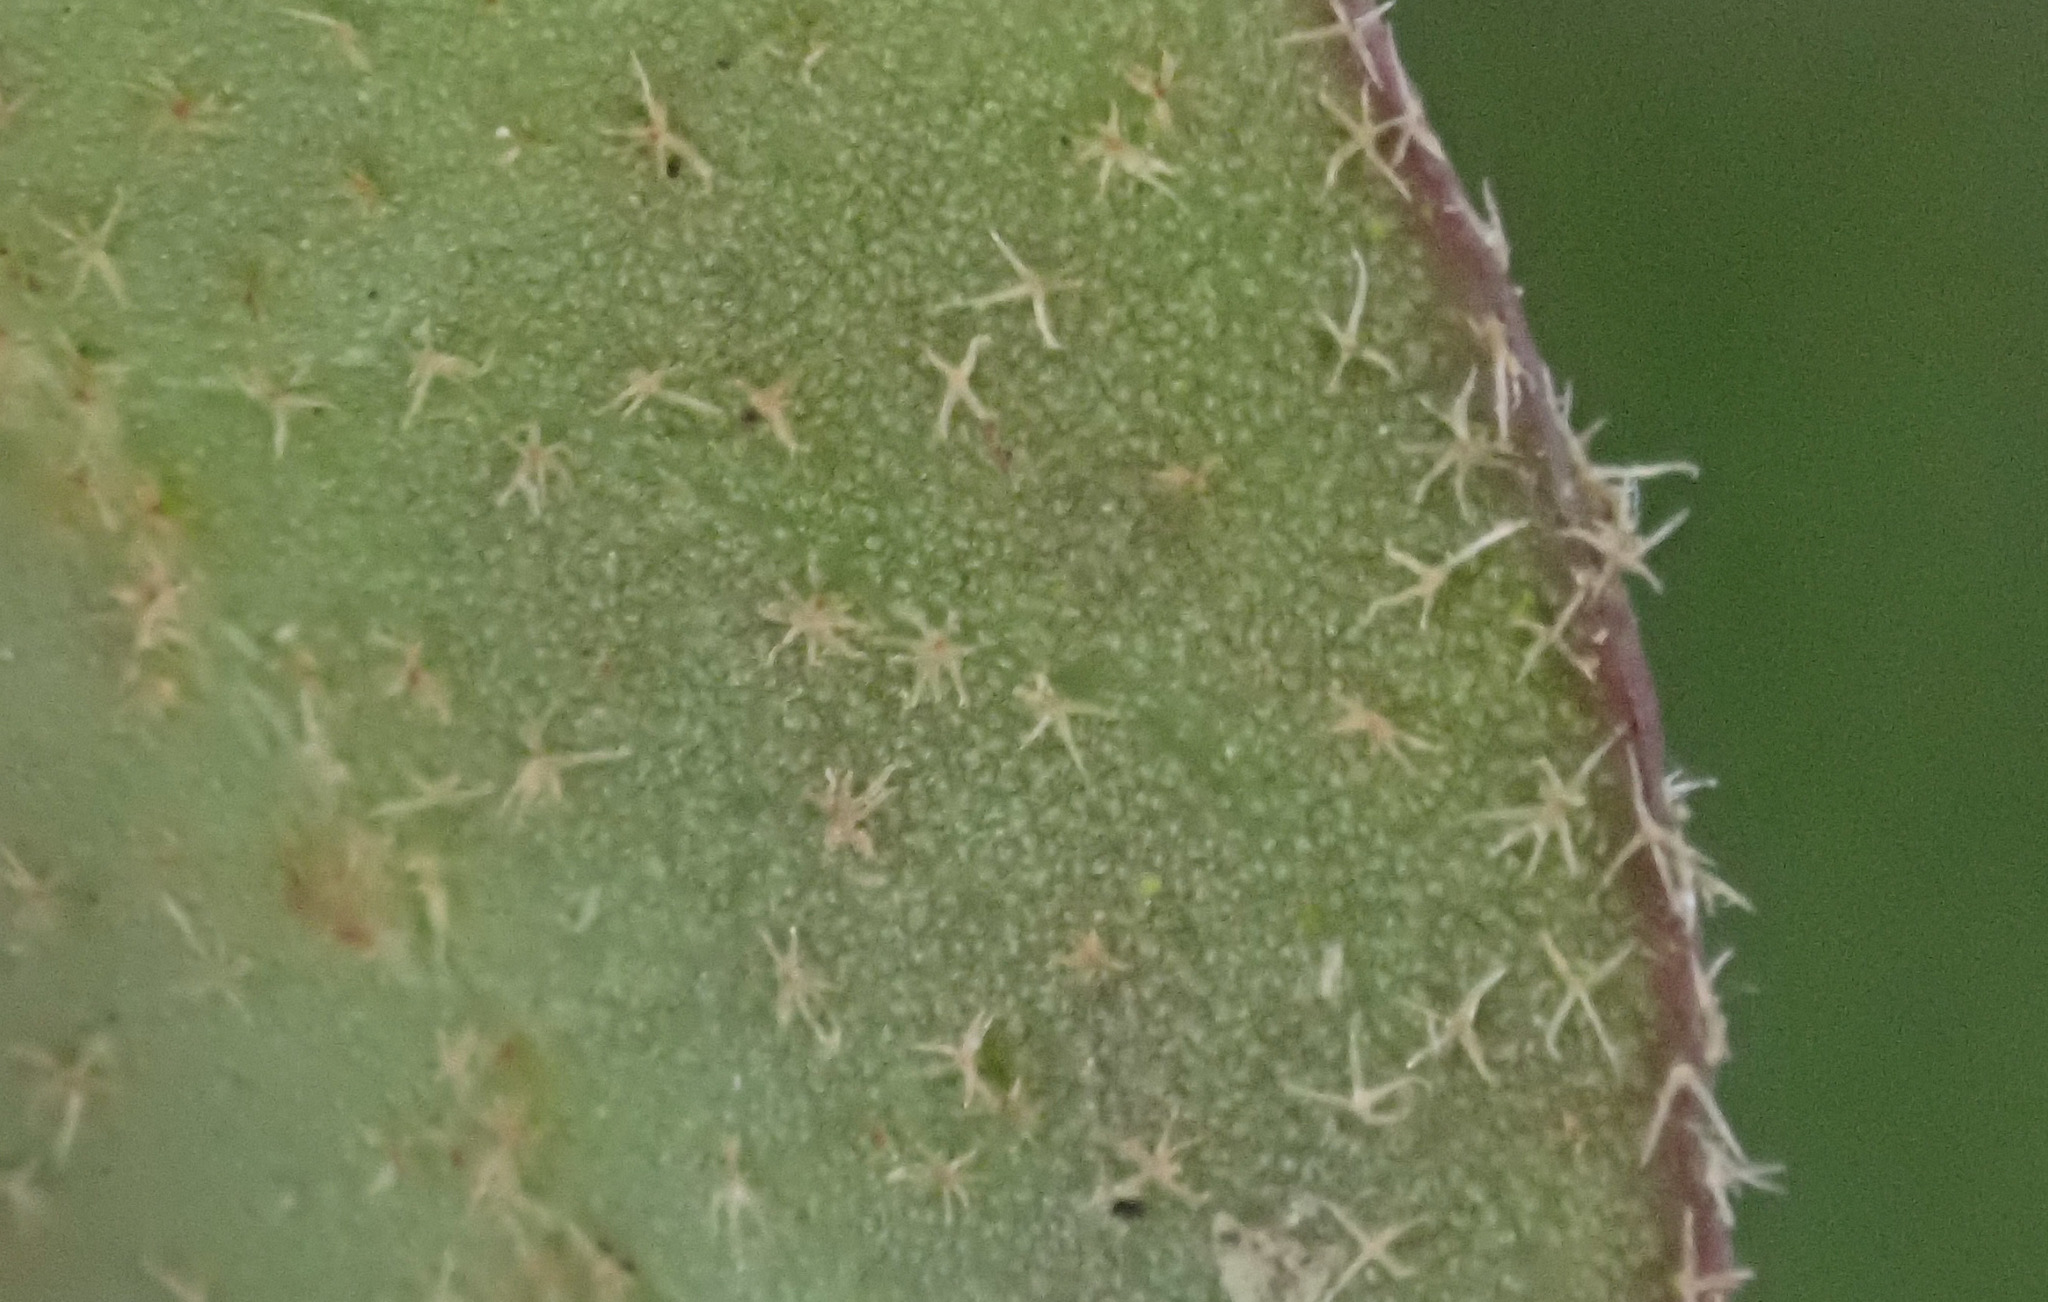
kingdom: Plantae
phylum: Tracheophyta
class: Magnoliopsida
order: Apiales
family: Araliaceae
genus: Hedera
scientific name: Hedera helix
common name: Ivy
